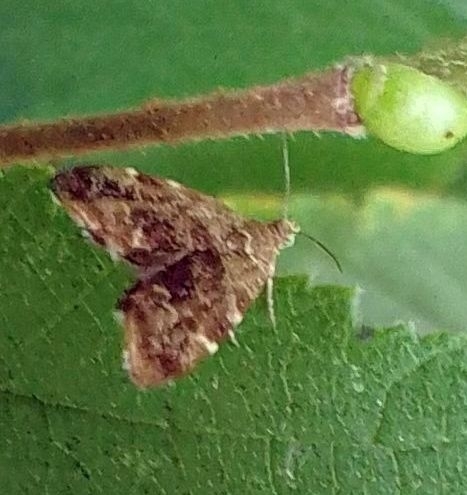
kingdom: Animalia
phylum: Arthropoda
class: Insecta
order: Lepidoptera
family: Choreutidae
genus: Anthophila
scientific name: Anthophila fabriciana
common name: Nettle-tap
